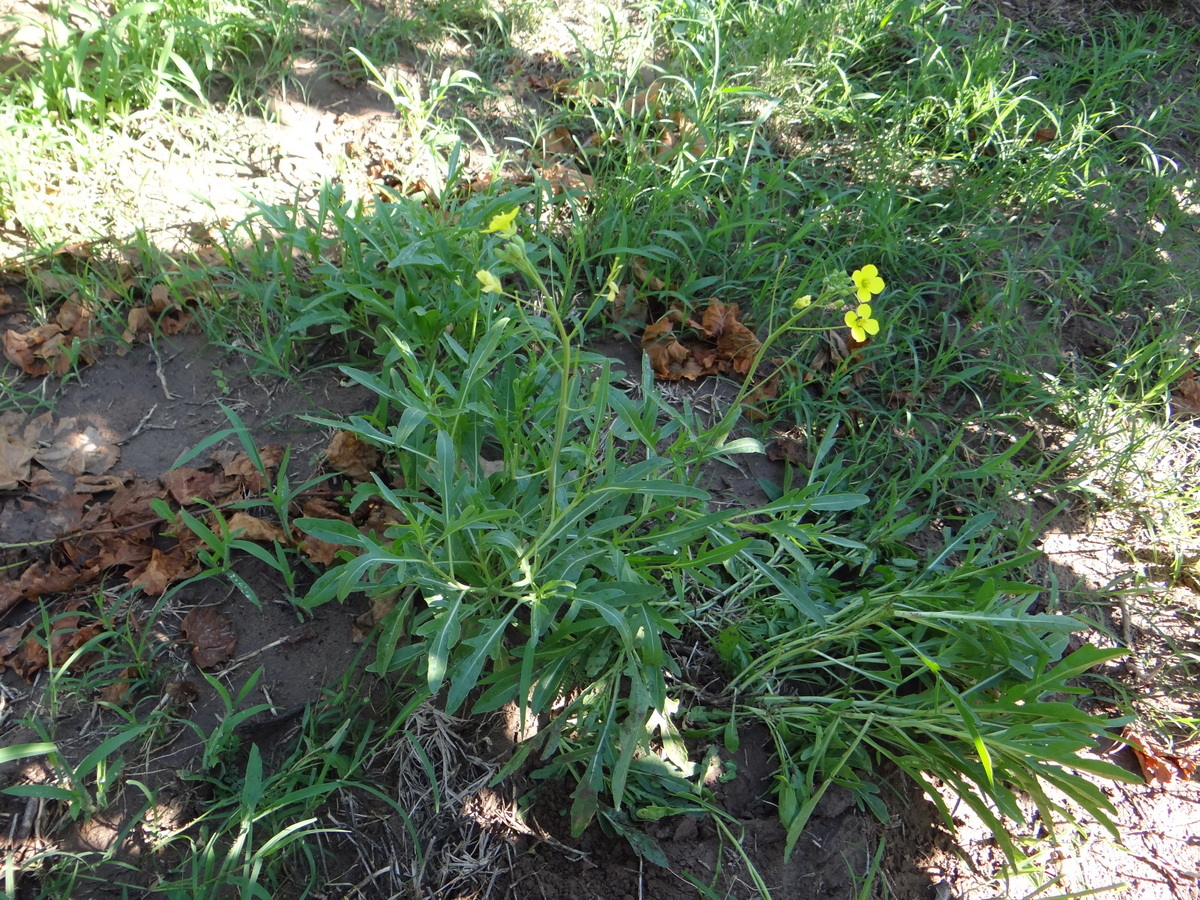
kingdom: Plantae
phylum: Tracheophyta
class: Magnoliopsida
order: Brassicales
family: Brassicaceae
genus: Diplotaxis
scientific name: Diplotaxis tenuifolia
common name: Perennial wall-rocket
